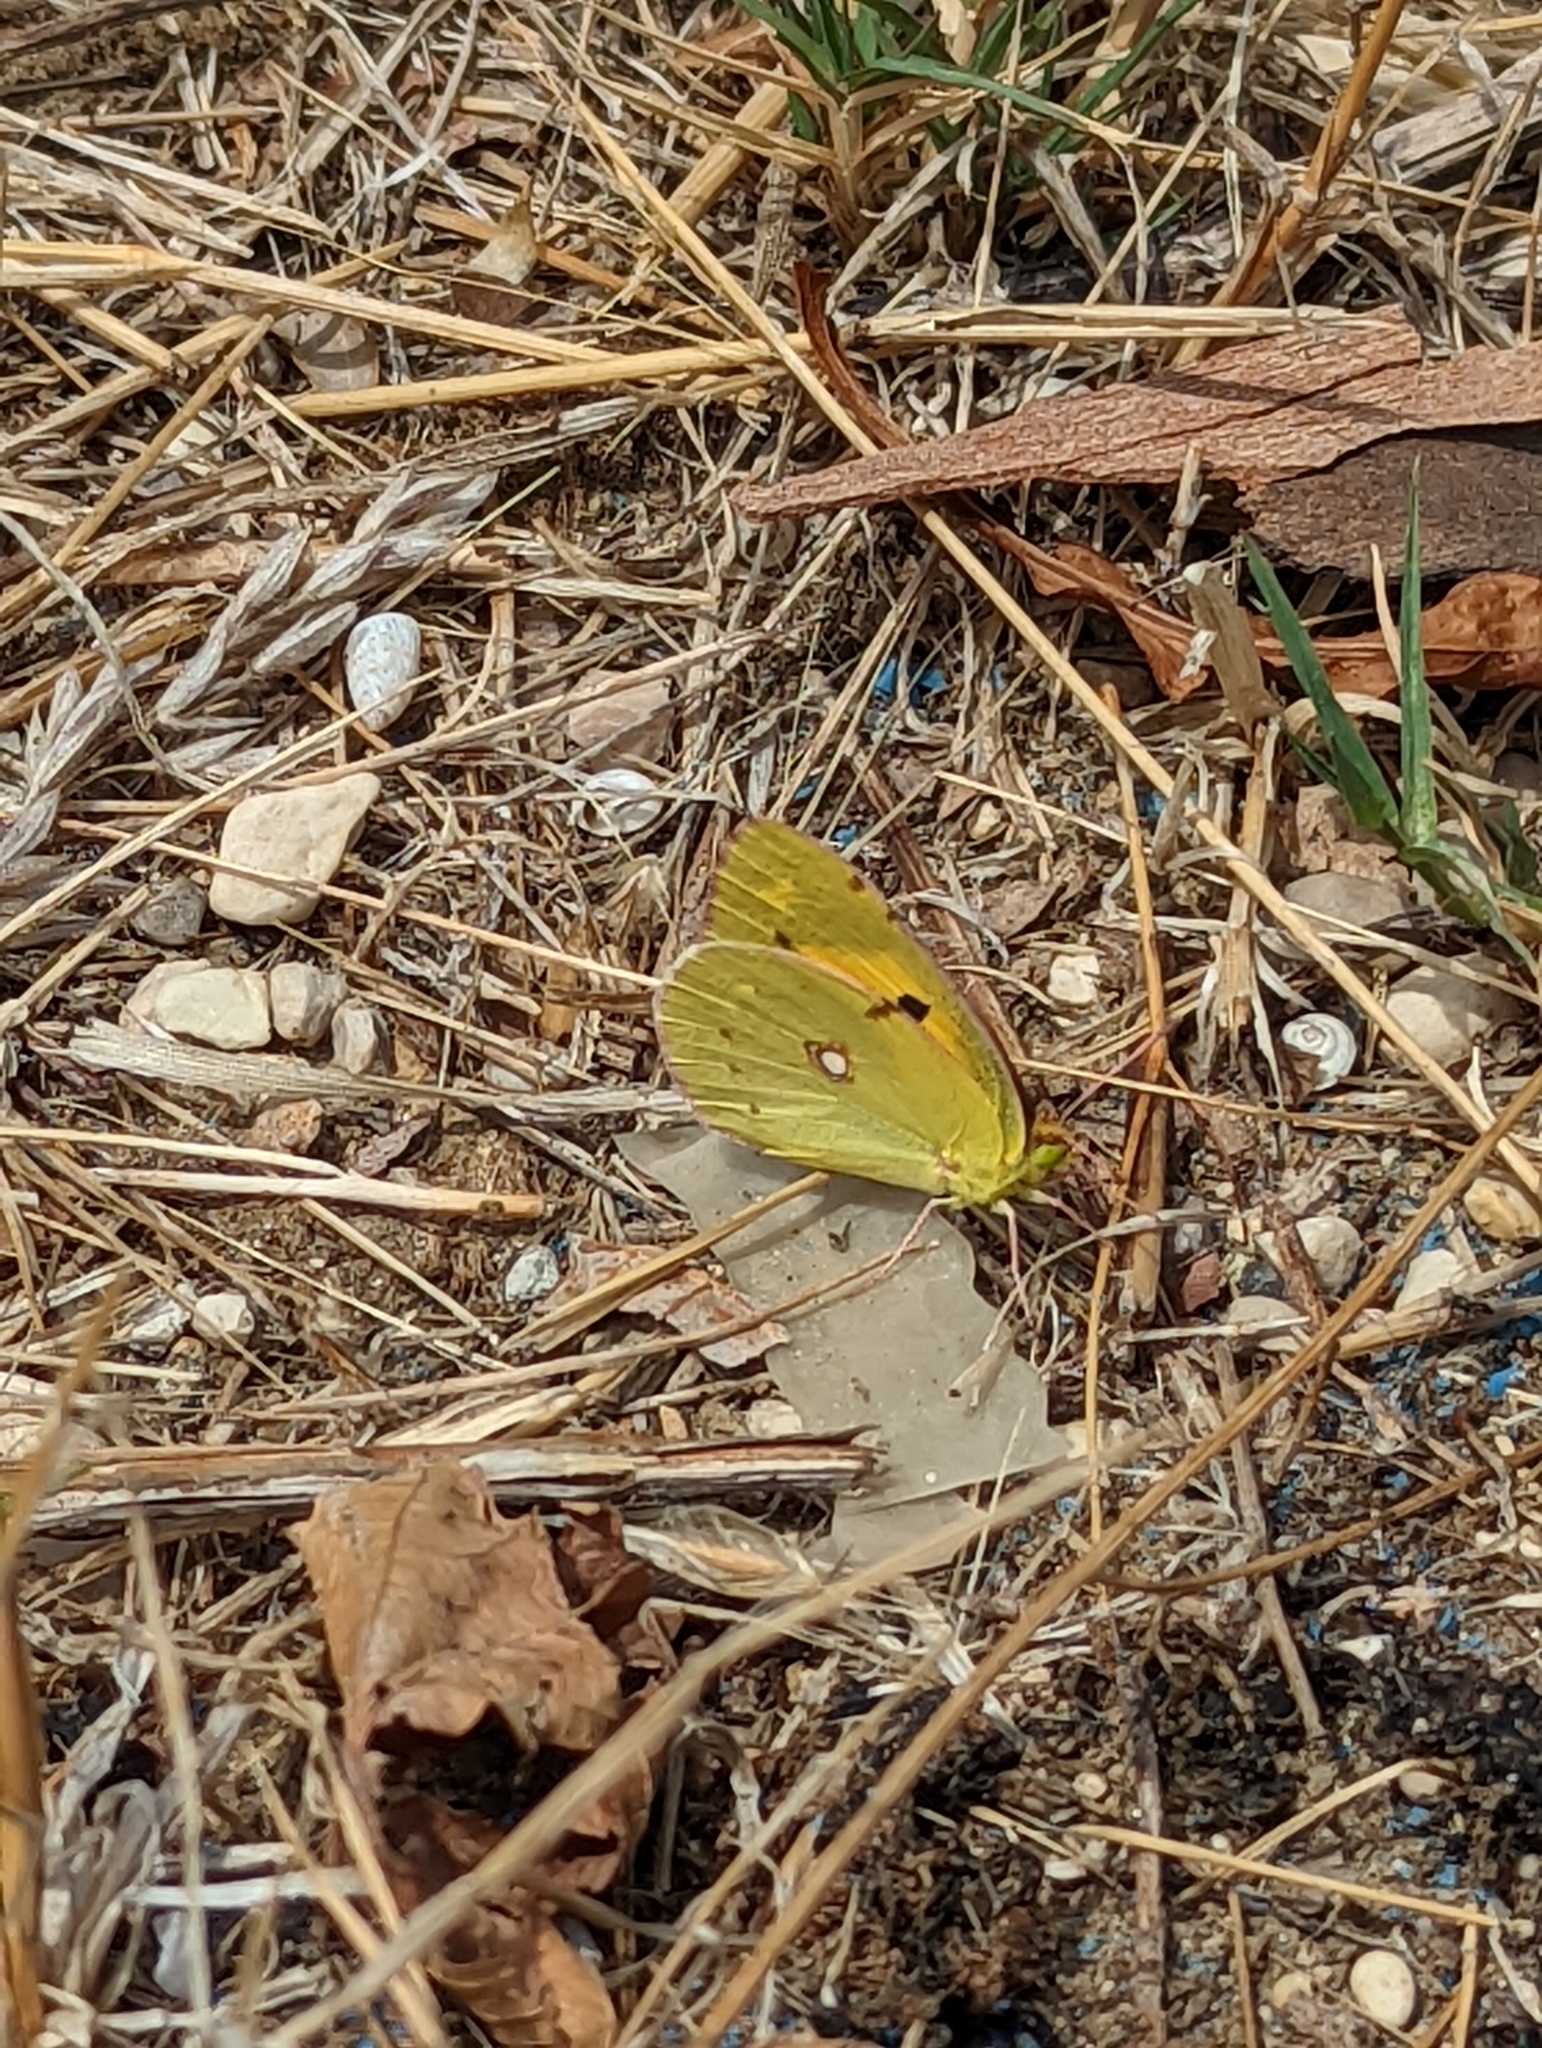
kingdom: Animalia
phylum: Arthropoda
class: Insecta
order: Lepidoptera
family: Pieridae
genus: Colias
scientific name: Colias croceus
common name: Clouded yellow
